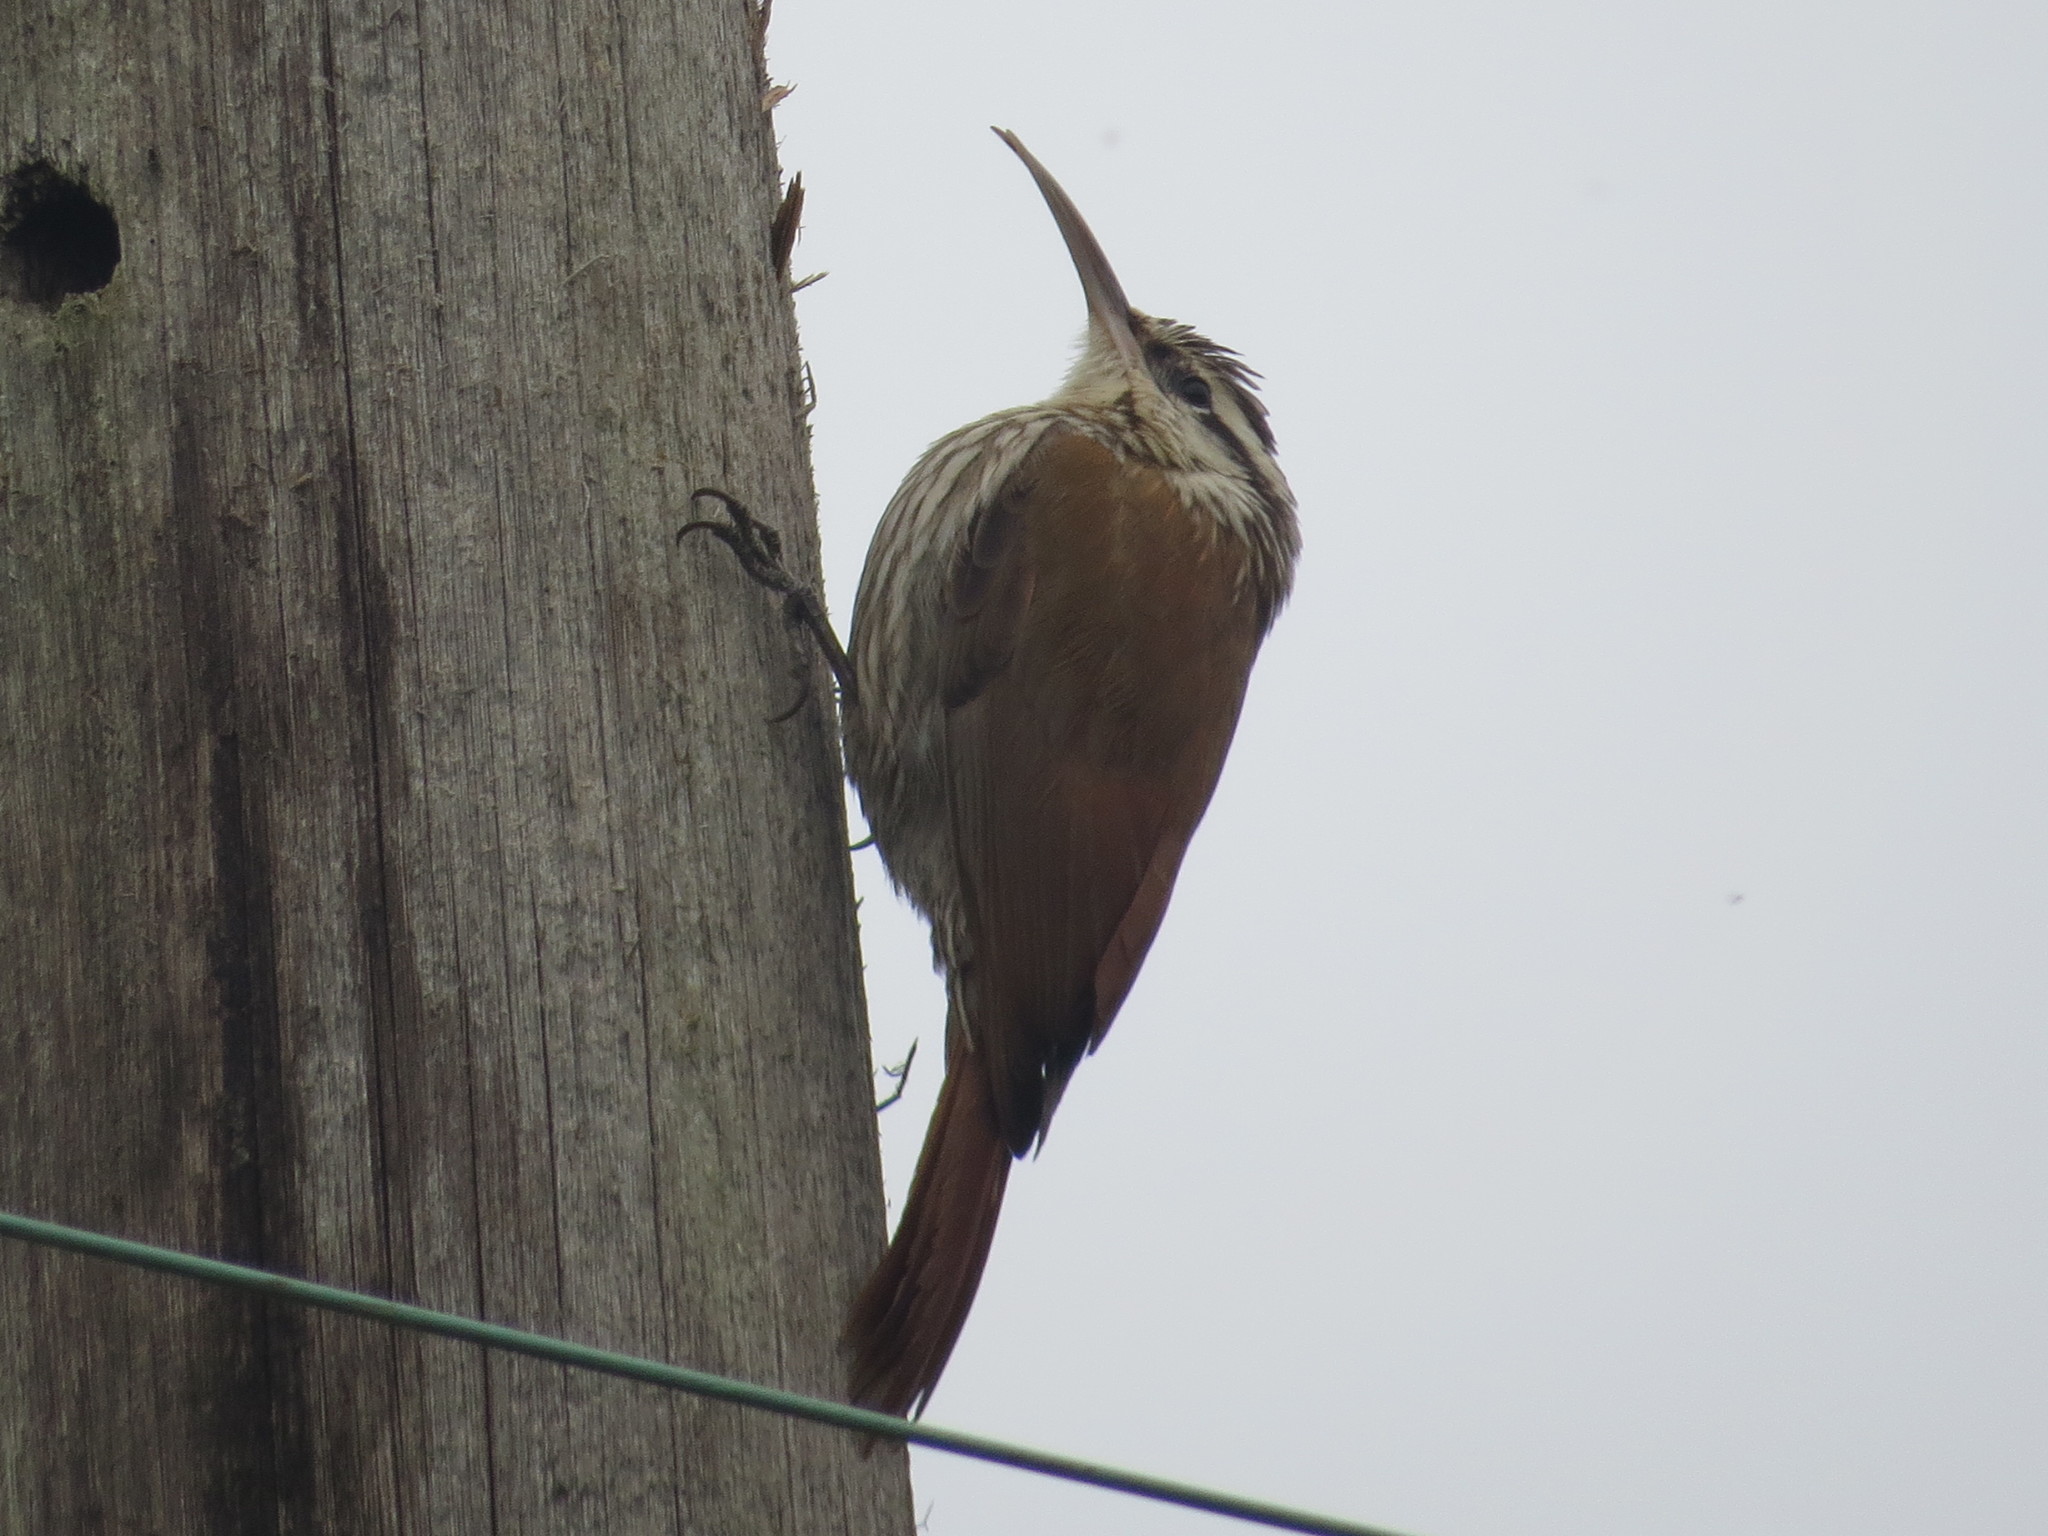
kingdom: Animalia
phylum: Chordata
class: Aves
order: Passeriformes
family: Furnariidae
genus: Lepidocolaptes
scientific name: Lepidocolaptes angustirostris
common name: Narrow-billed woodcreeper
